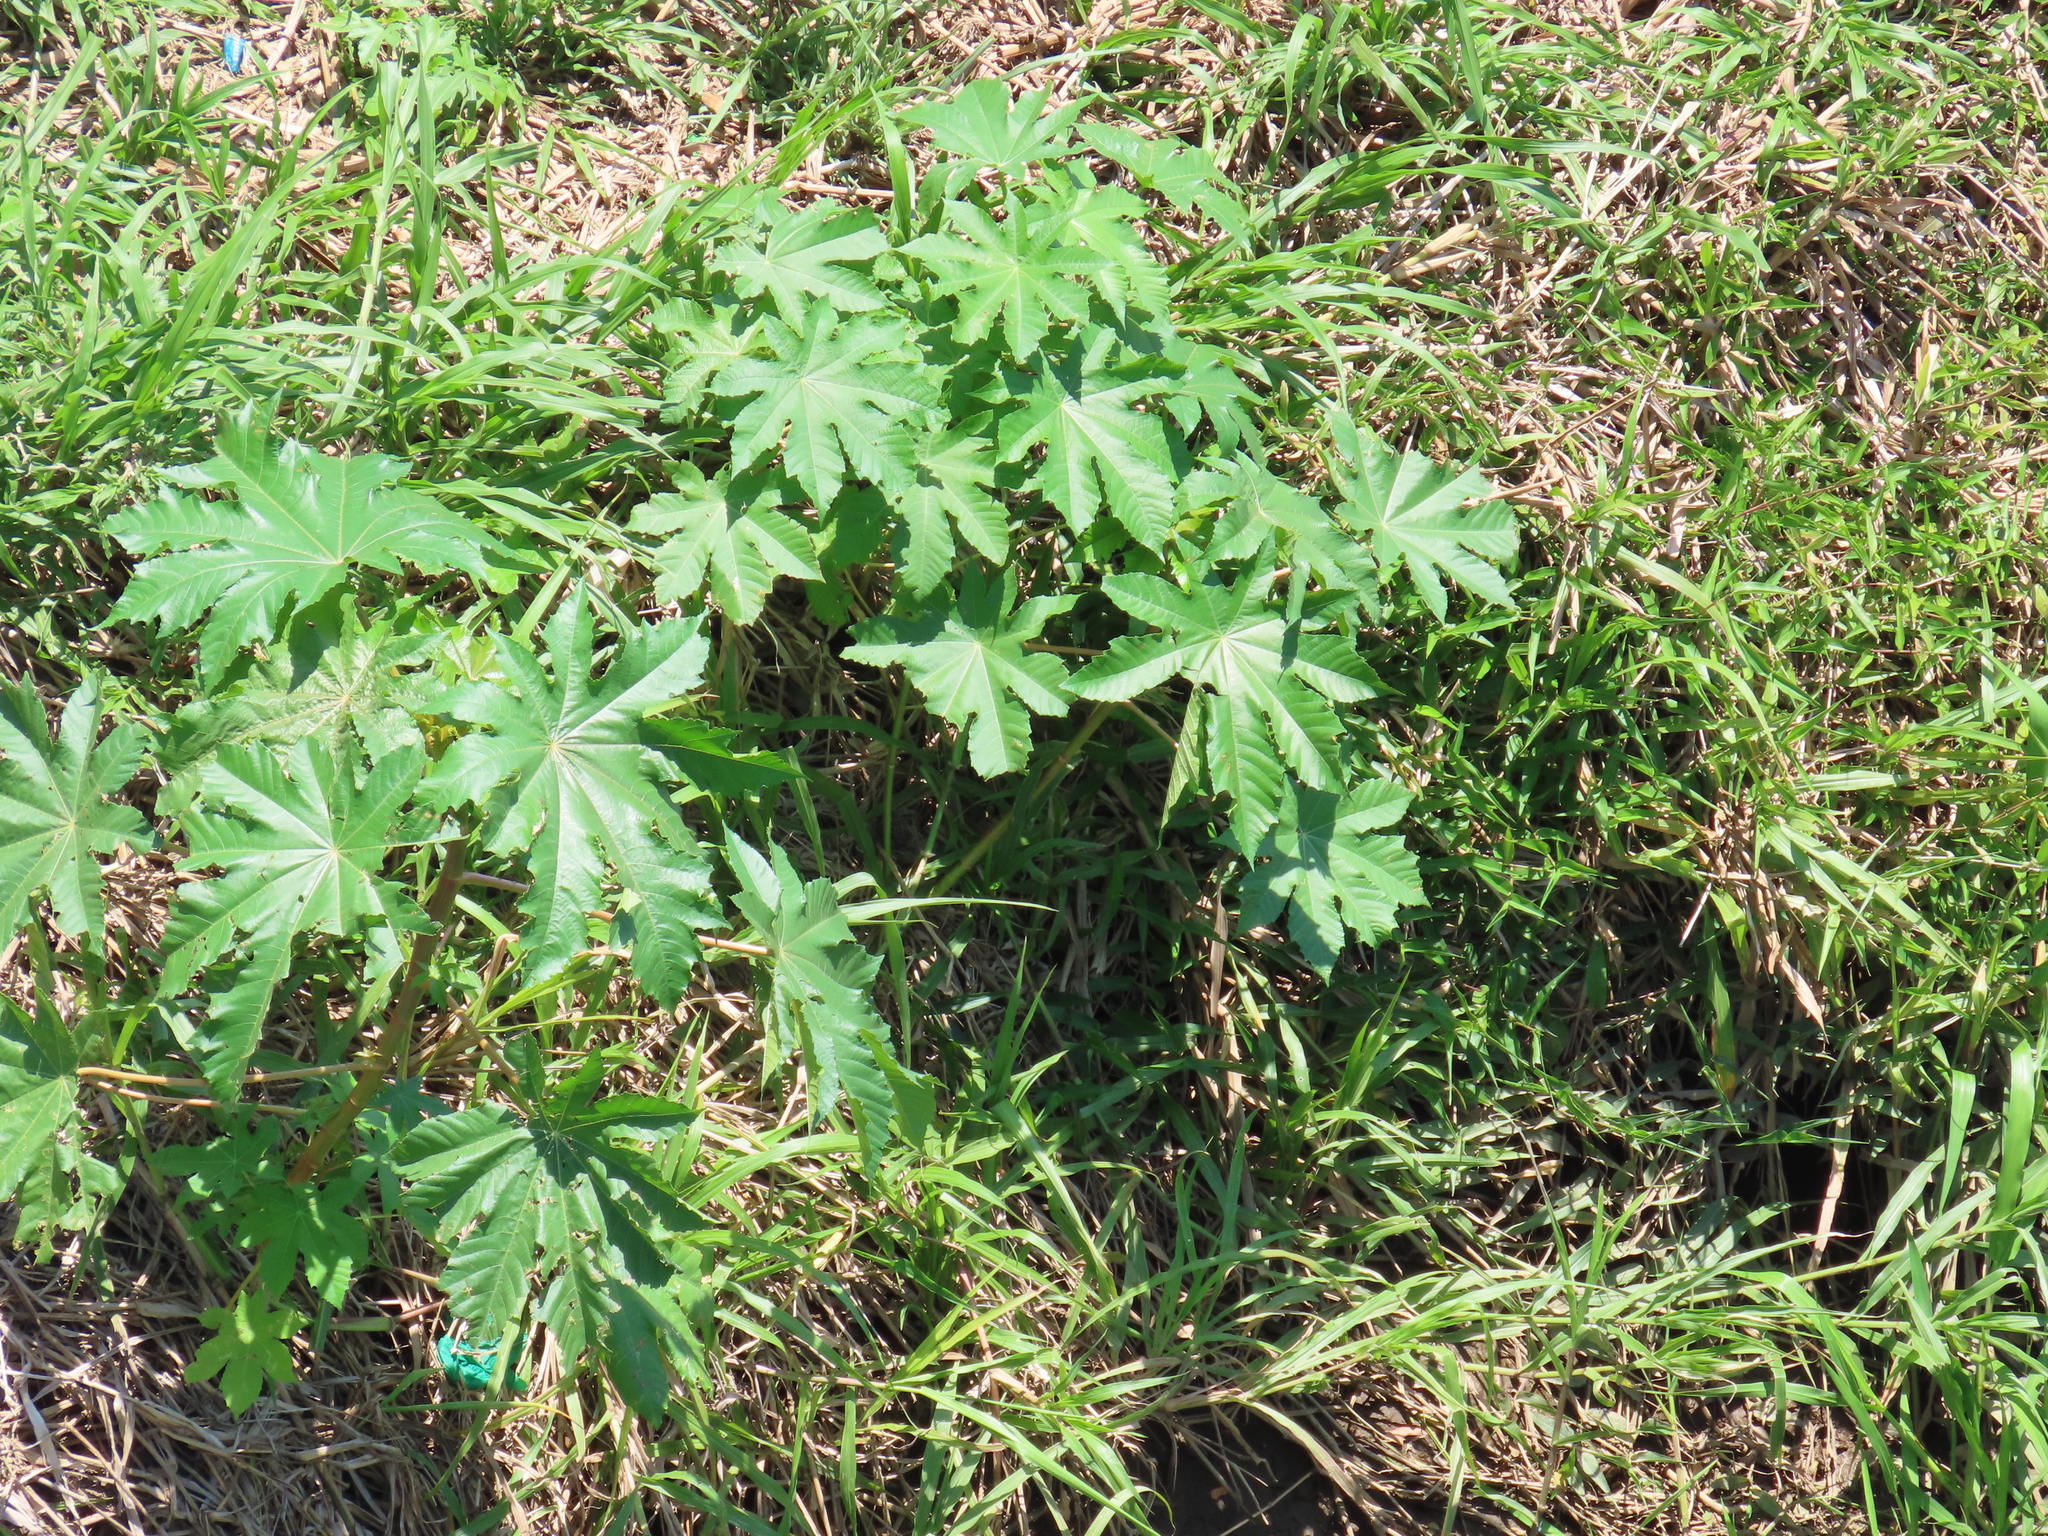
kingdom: Plantae
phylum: Tracheophyta
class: Magnoliopsida
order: Malpighiales
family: Euphorbiaceae
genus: Ricinus
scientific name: Ricinus communis
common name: Castor-oil-plant
